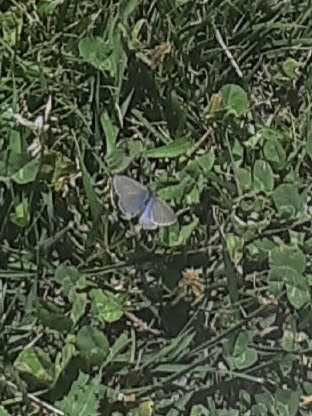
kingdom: Animalia
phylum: Arthropoda
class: Insecta
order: Lepidoptera
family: Lycaenidae
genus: Zizina
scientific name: Zizina labradus
